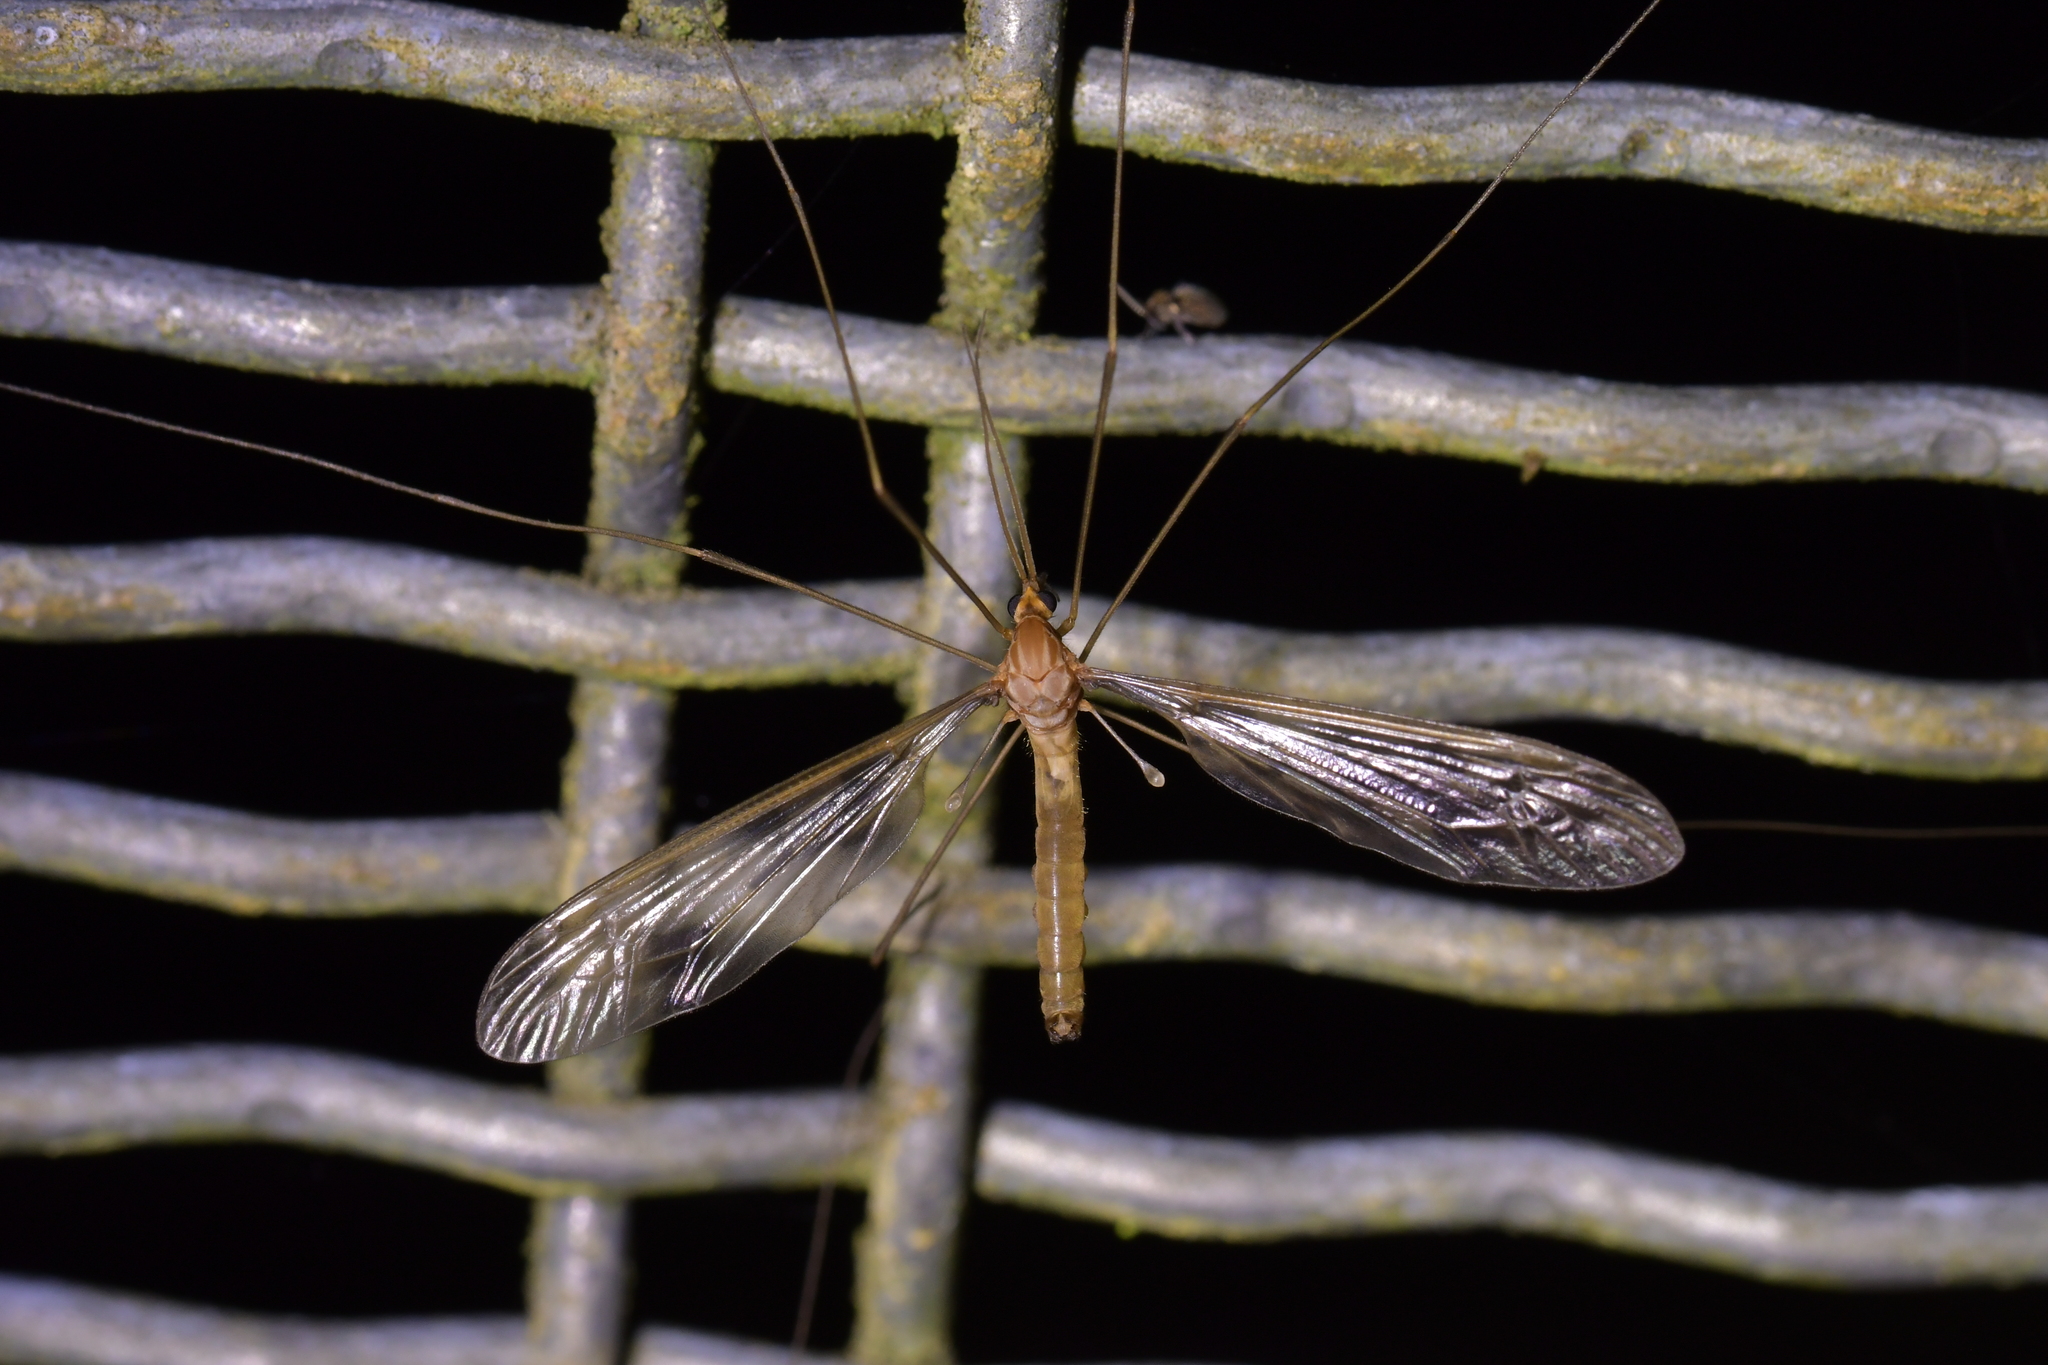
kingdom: Animalia
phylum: Arthropoda
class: Insecta
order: Diptera
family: Tipulidae
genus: Leptotarsus
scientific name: Leptotarsus binotatus
